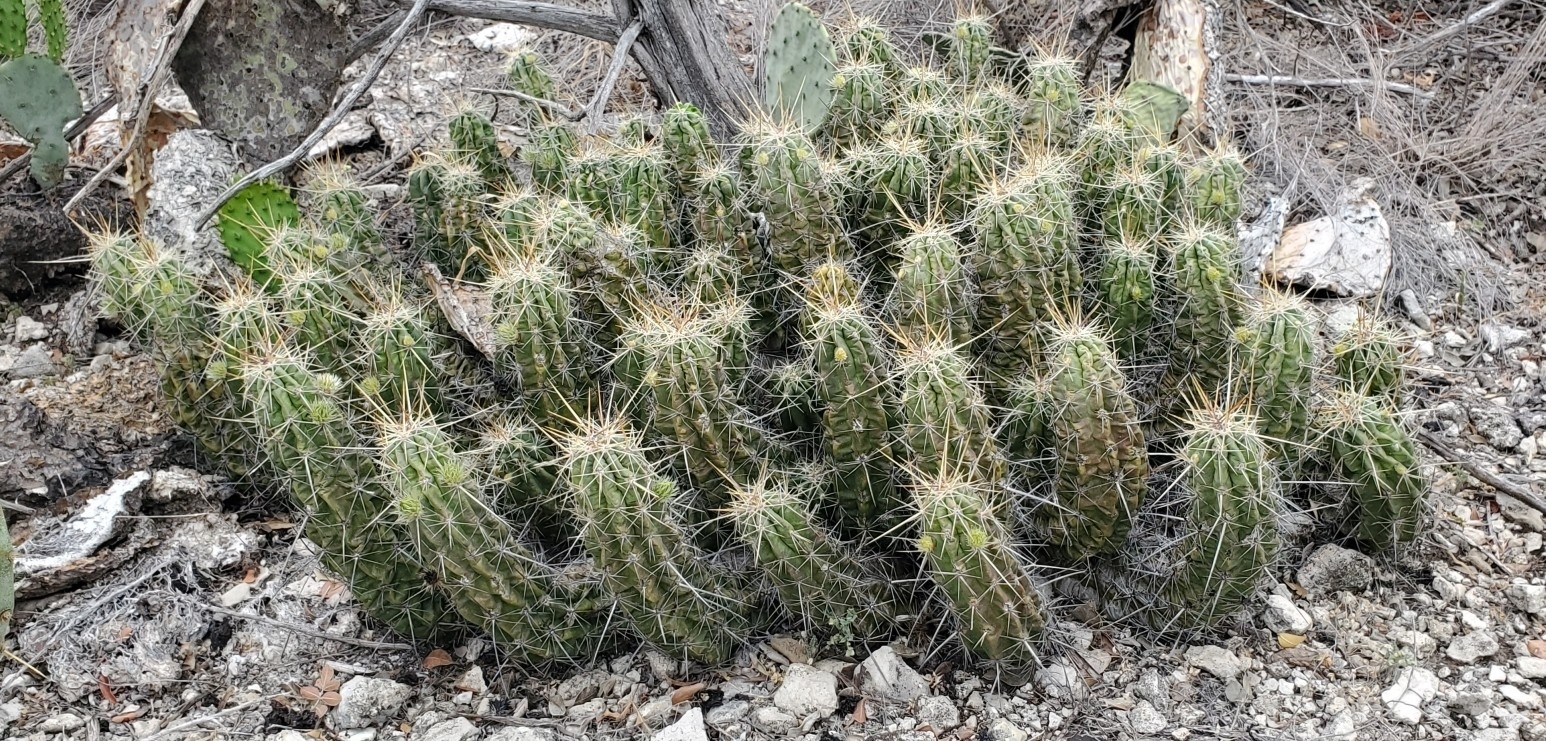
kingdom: Plantae
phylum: Tracheophyta
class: Magnoliopsida
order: Caryophyllales
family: Cactaceae
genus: Echinocereus
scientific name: Echinocereus enneacanthus
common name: Pitaya
